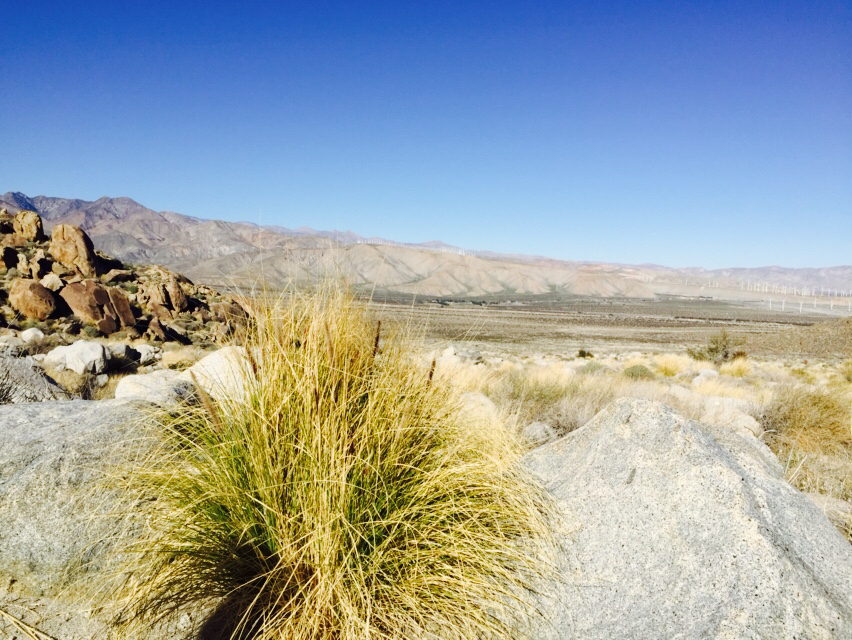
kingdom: Plantae
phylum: Tracheophyta
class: Liliopsida
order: Poales
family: Poaceae
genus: Cenchrus
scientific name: Cenchrus setaceus
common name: Crimson fountaingrass
